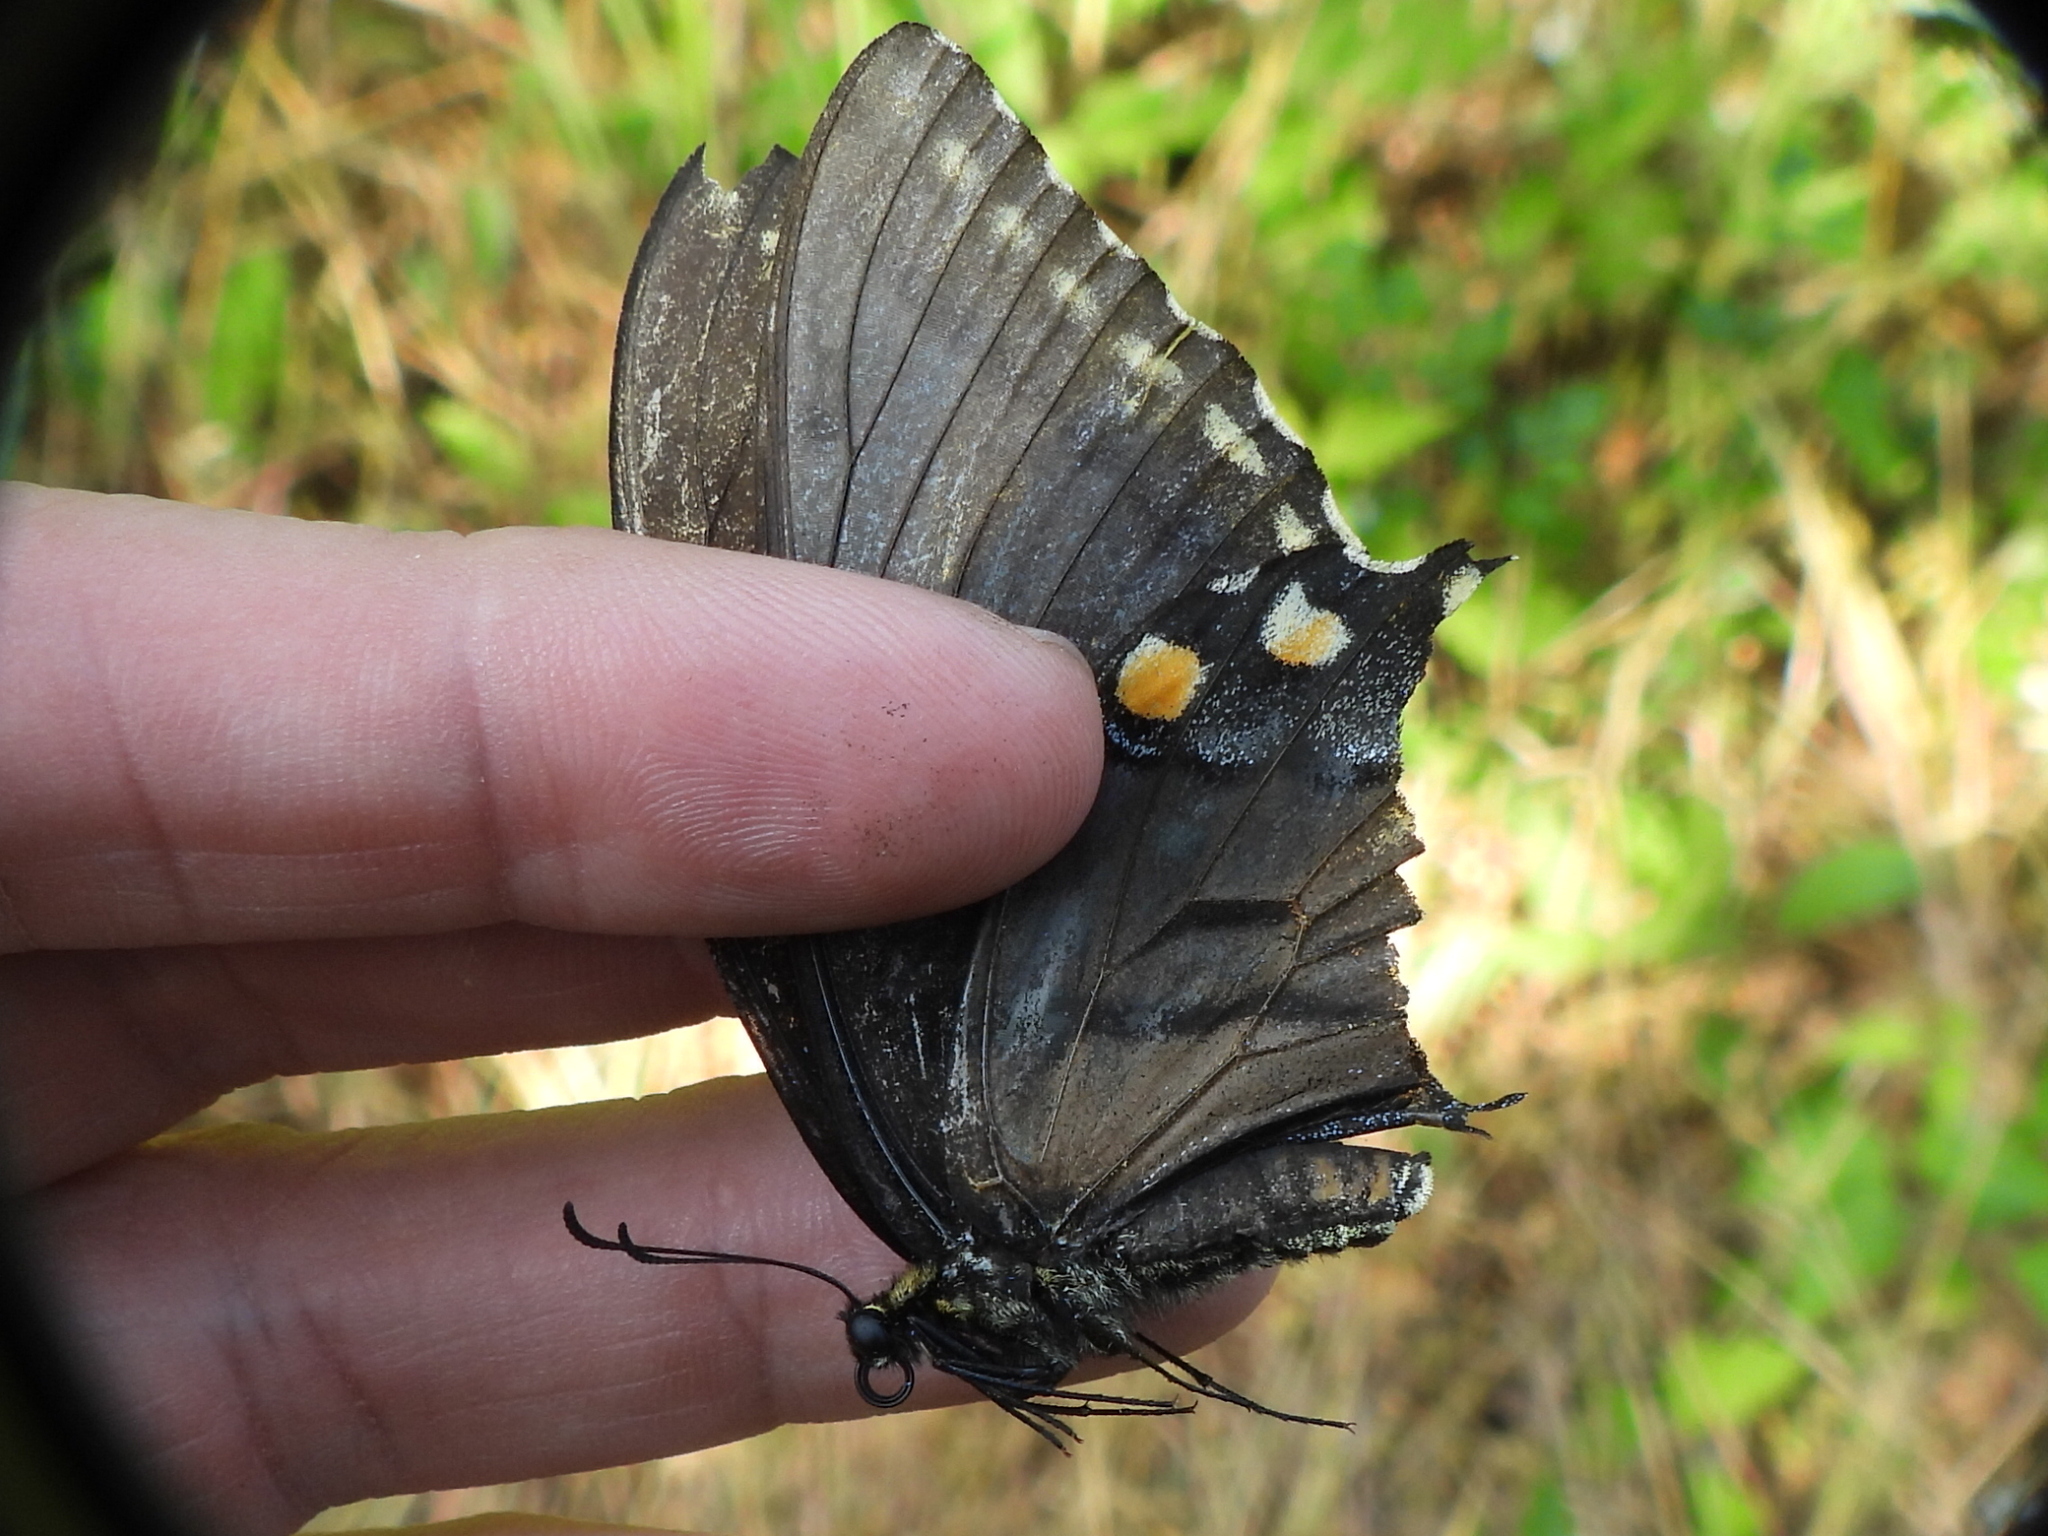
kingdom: Animalia
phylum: Arthropoda
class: Insecta
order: Lepidoptera
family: Papilionidae
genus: Papilio
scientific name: Papilio glaucus
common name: Tiger swallowtail
